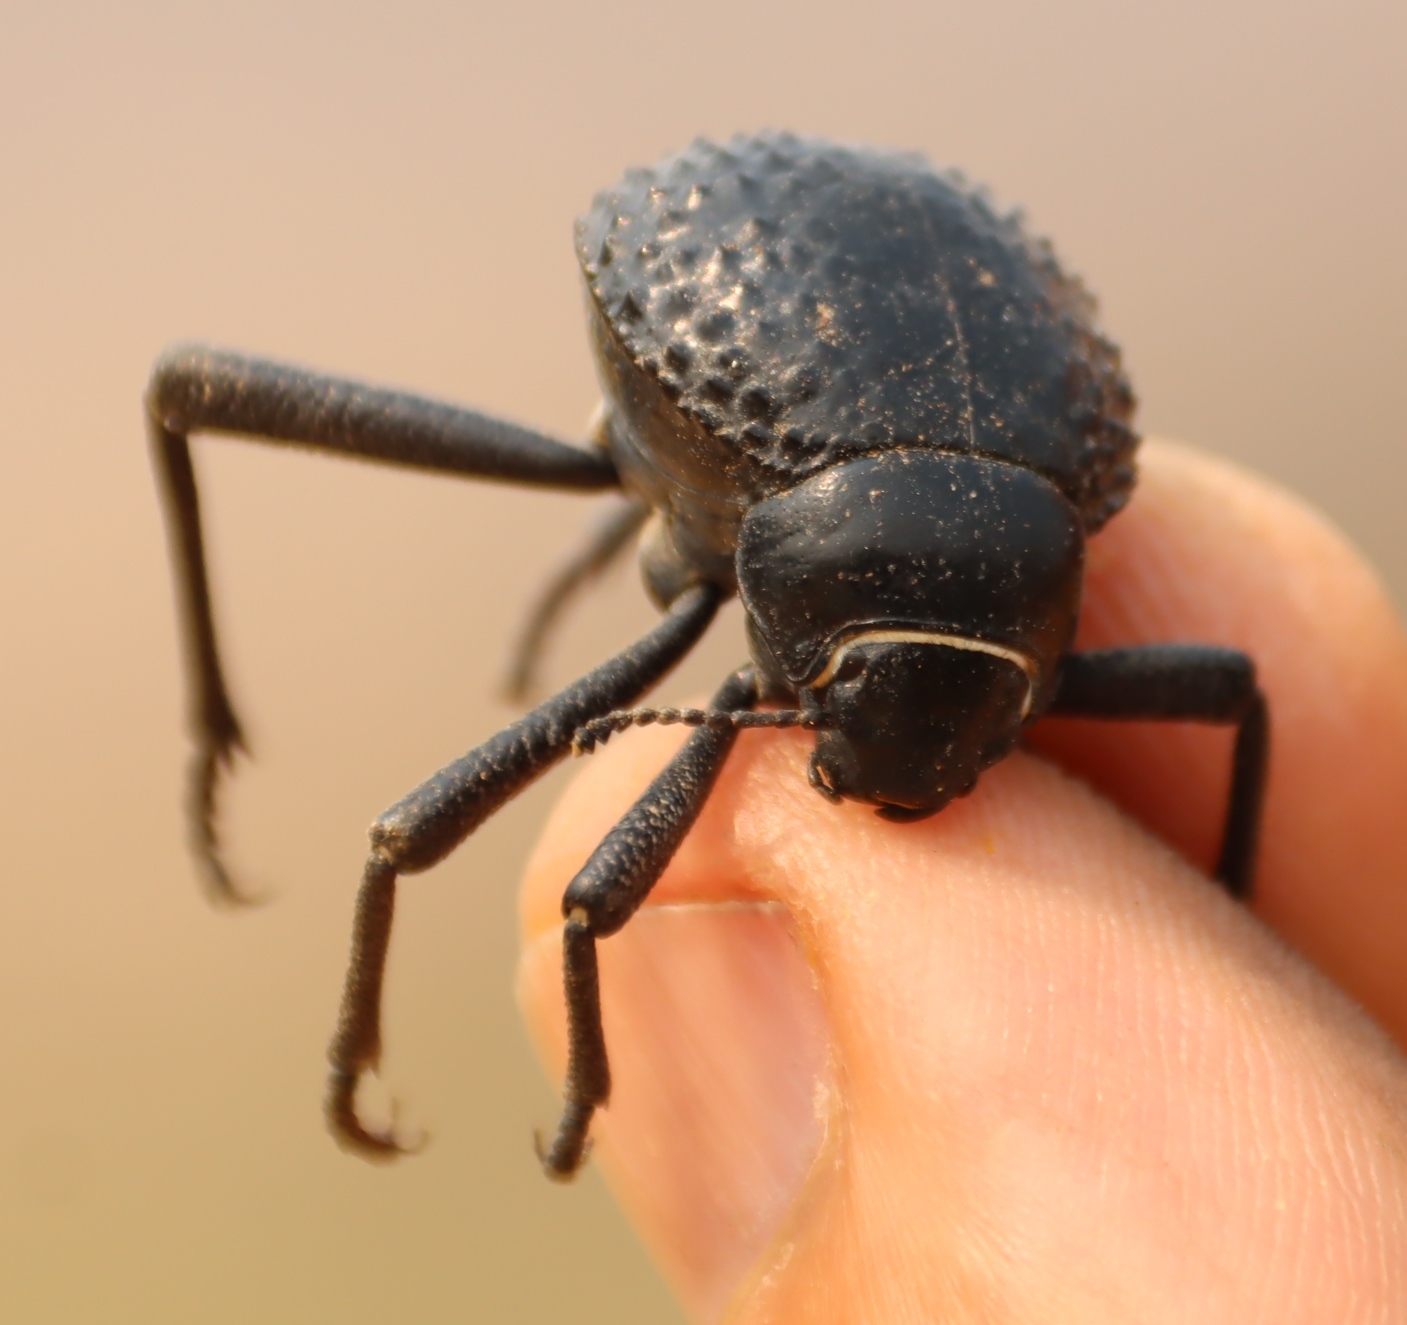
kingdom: Animalia
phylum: Arthropoda
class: Insecta
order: Coleoptera
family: Tenebrionidae
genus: Adesmia
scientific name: Adesmia
